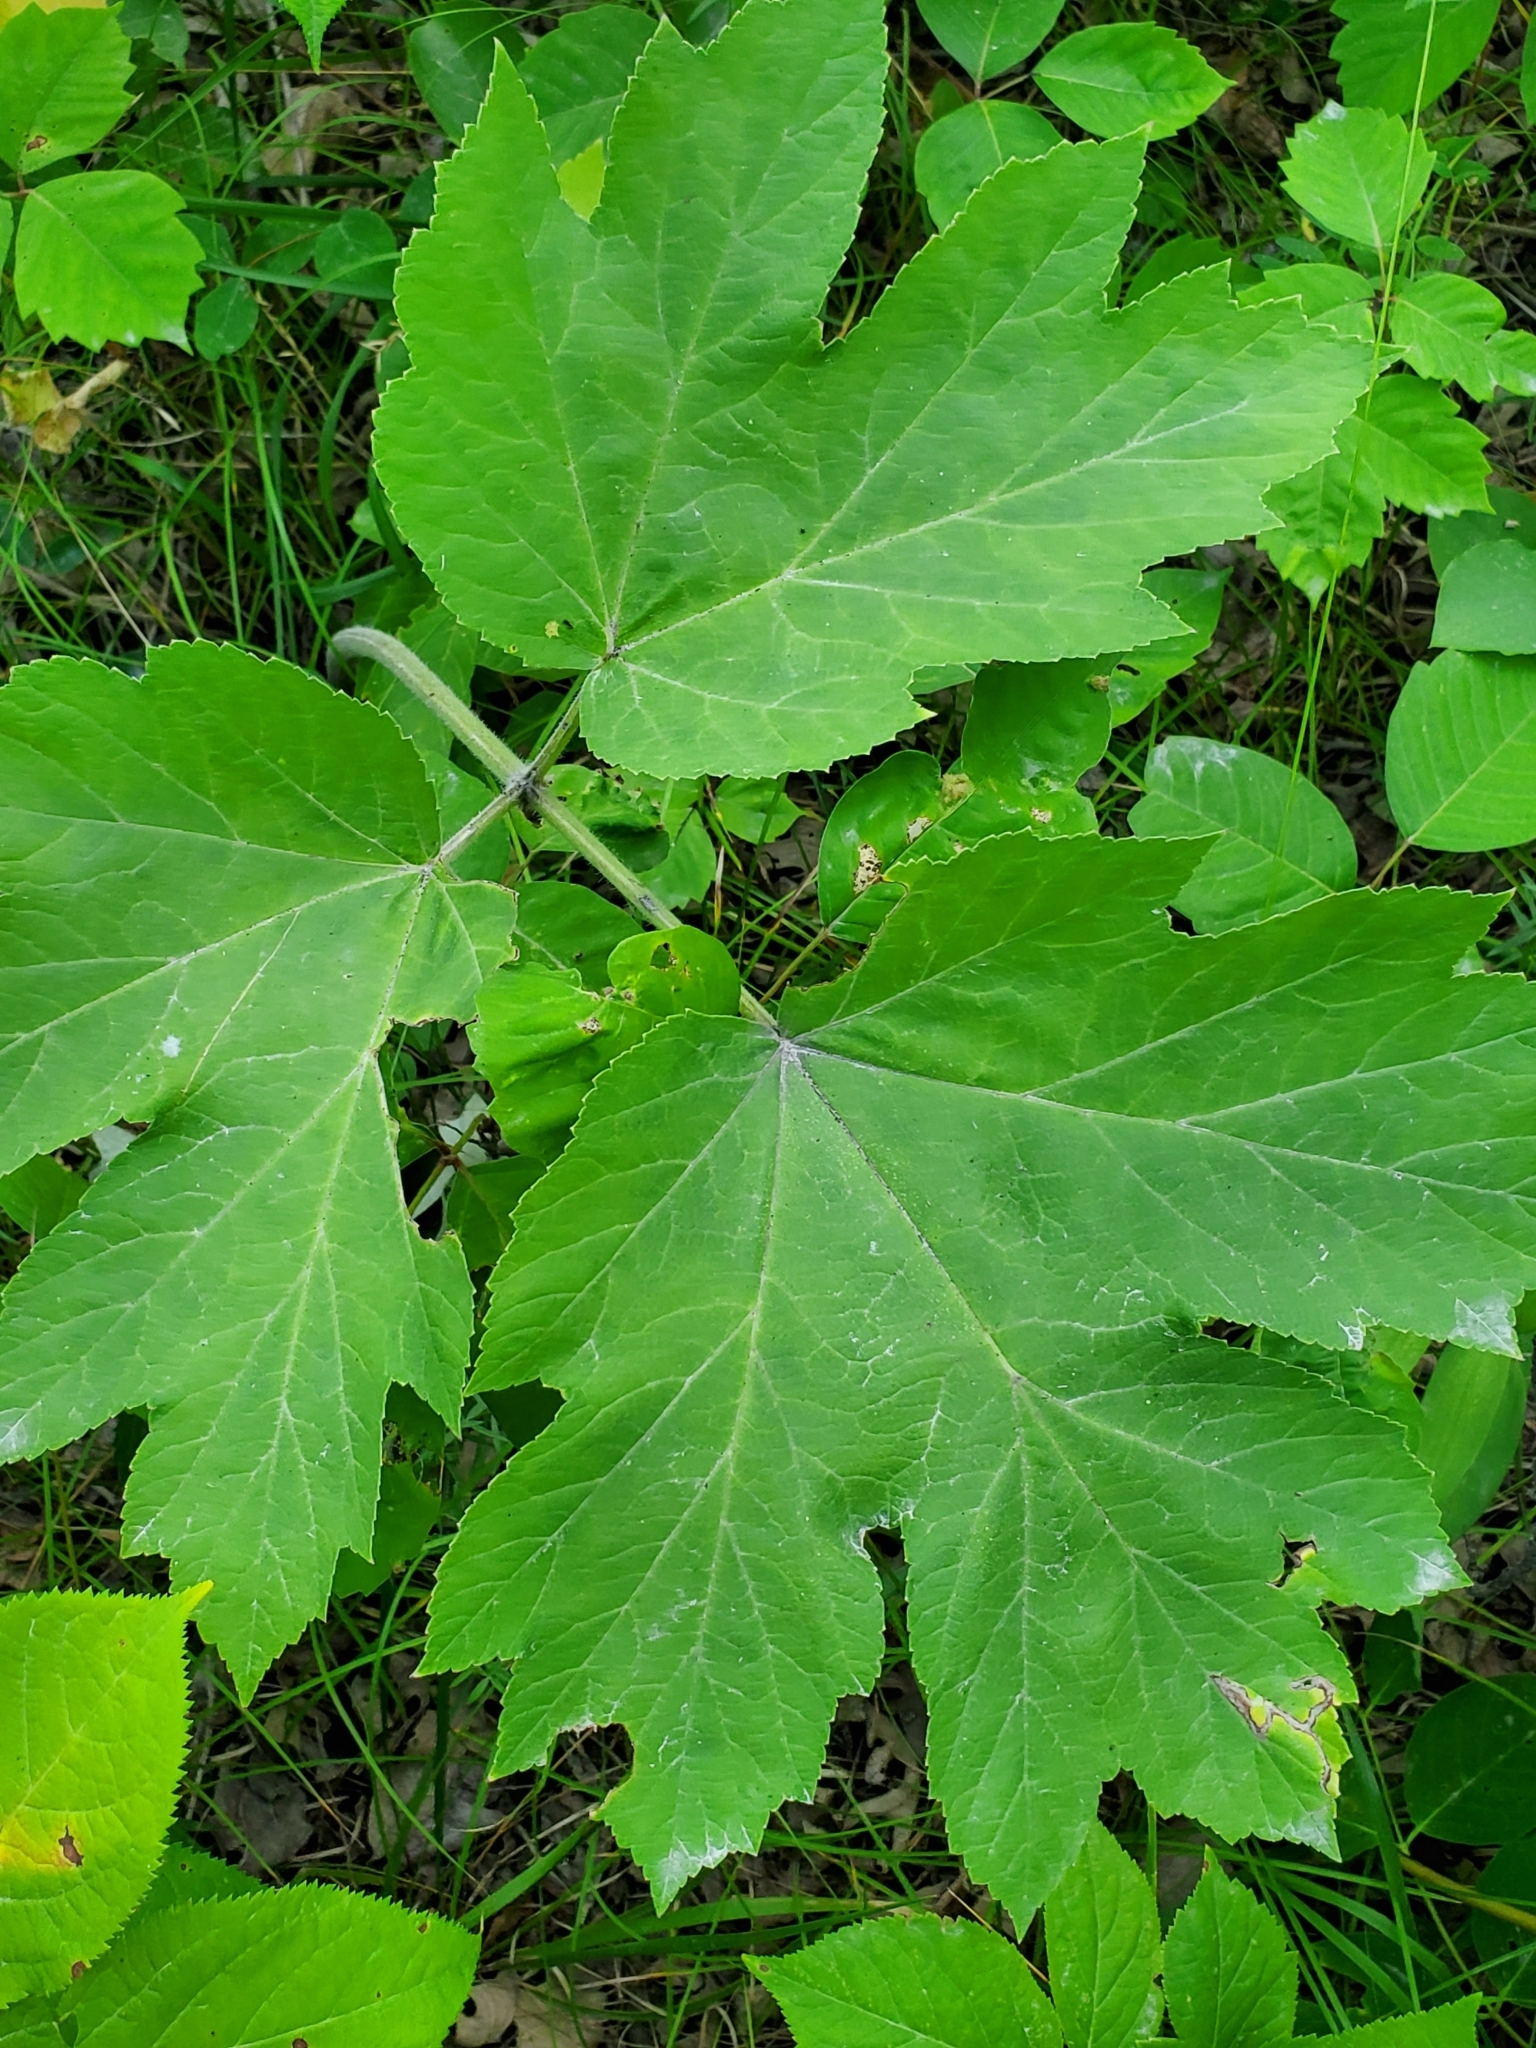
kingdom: Plantae
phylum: Tracheophyta
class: Magnoliopsida
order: Apiales
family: Apiaceae
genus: Heracleum
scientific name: Heracleum maximum
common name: American cow parsnip
